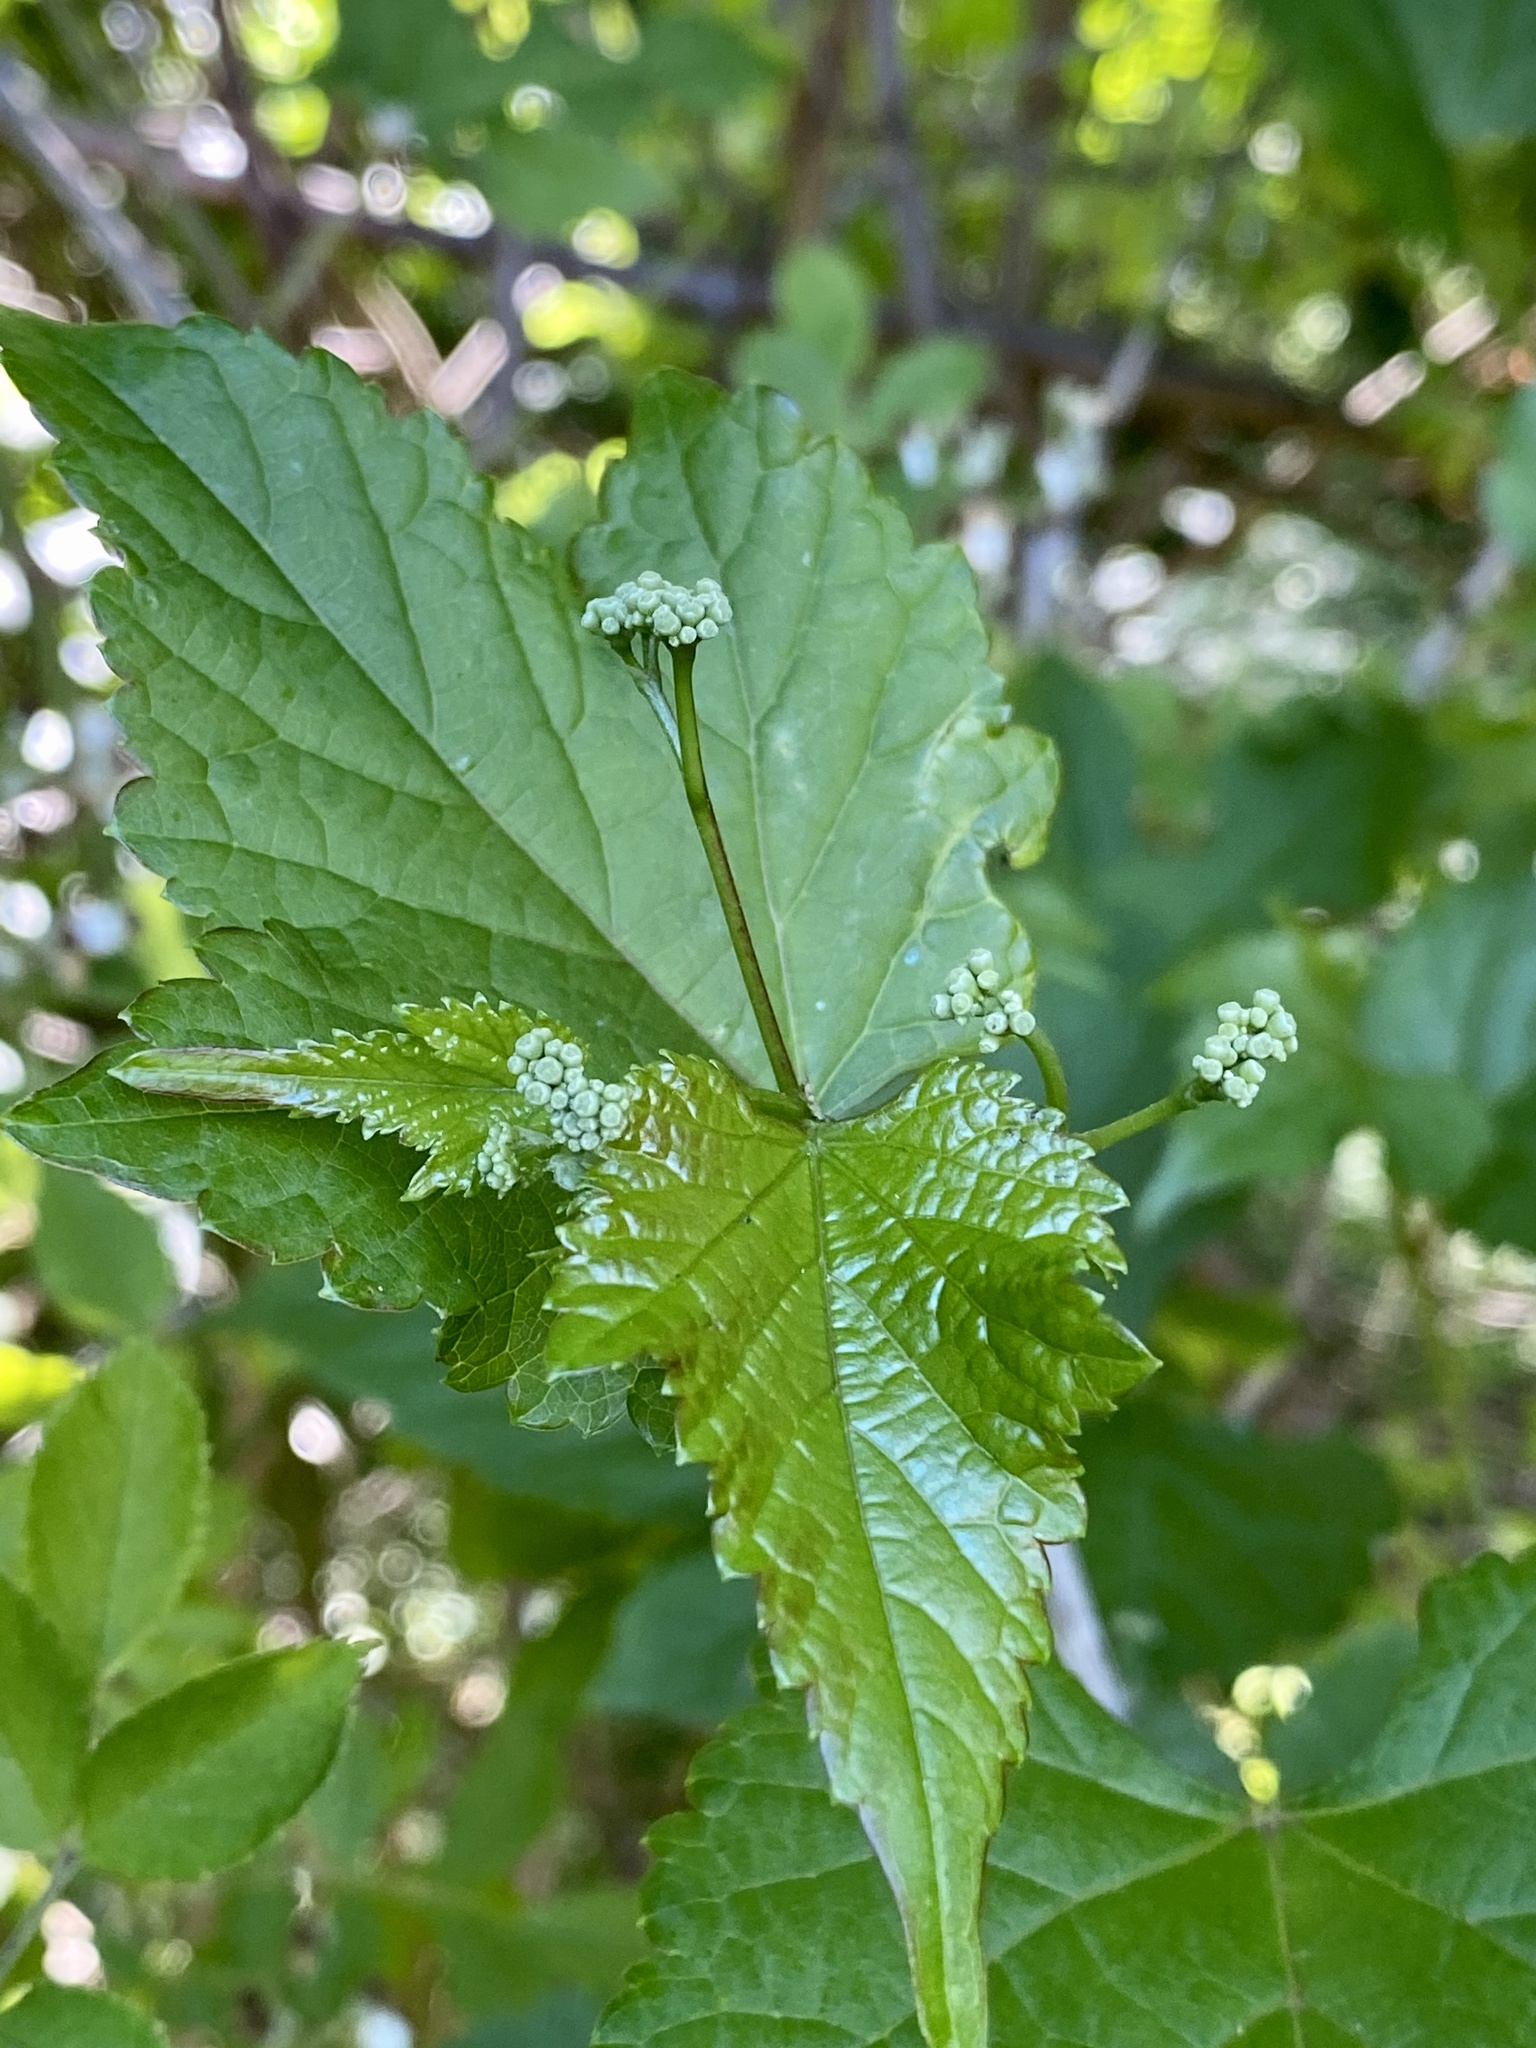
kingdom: Plantae
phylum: Tracheophyta
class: Magnoliopsida
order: Vitales
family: Vitaceae
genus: Ampelopsis
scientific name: Ampelopsis glandulosa
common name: Amur peppervine
